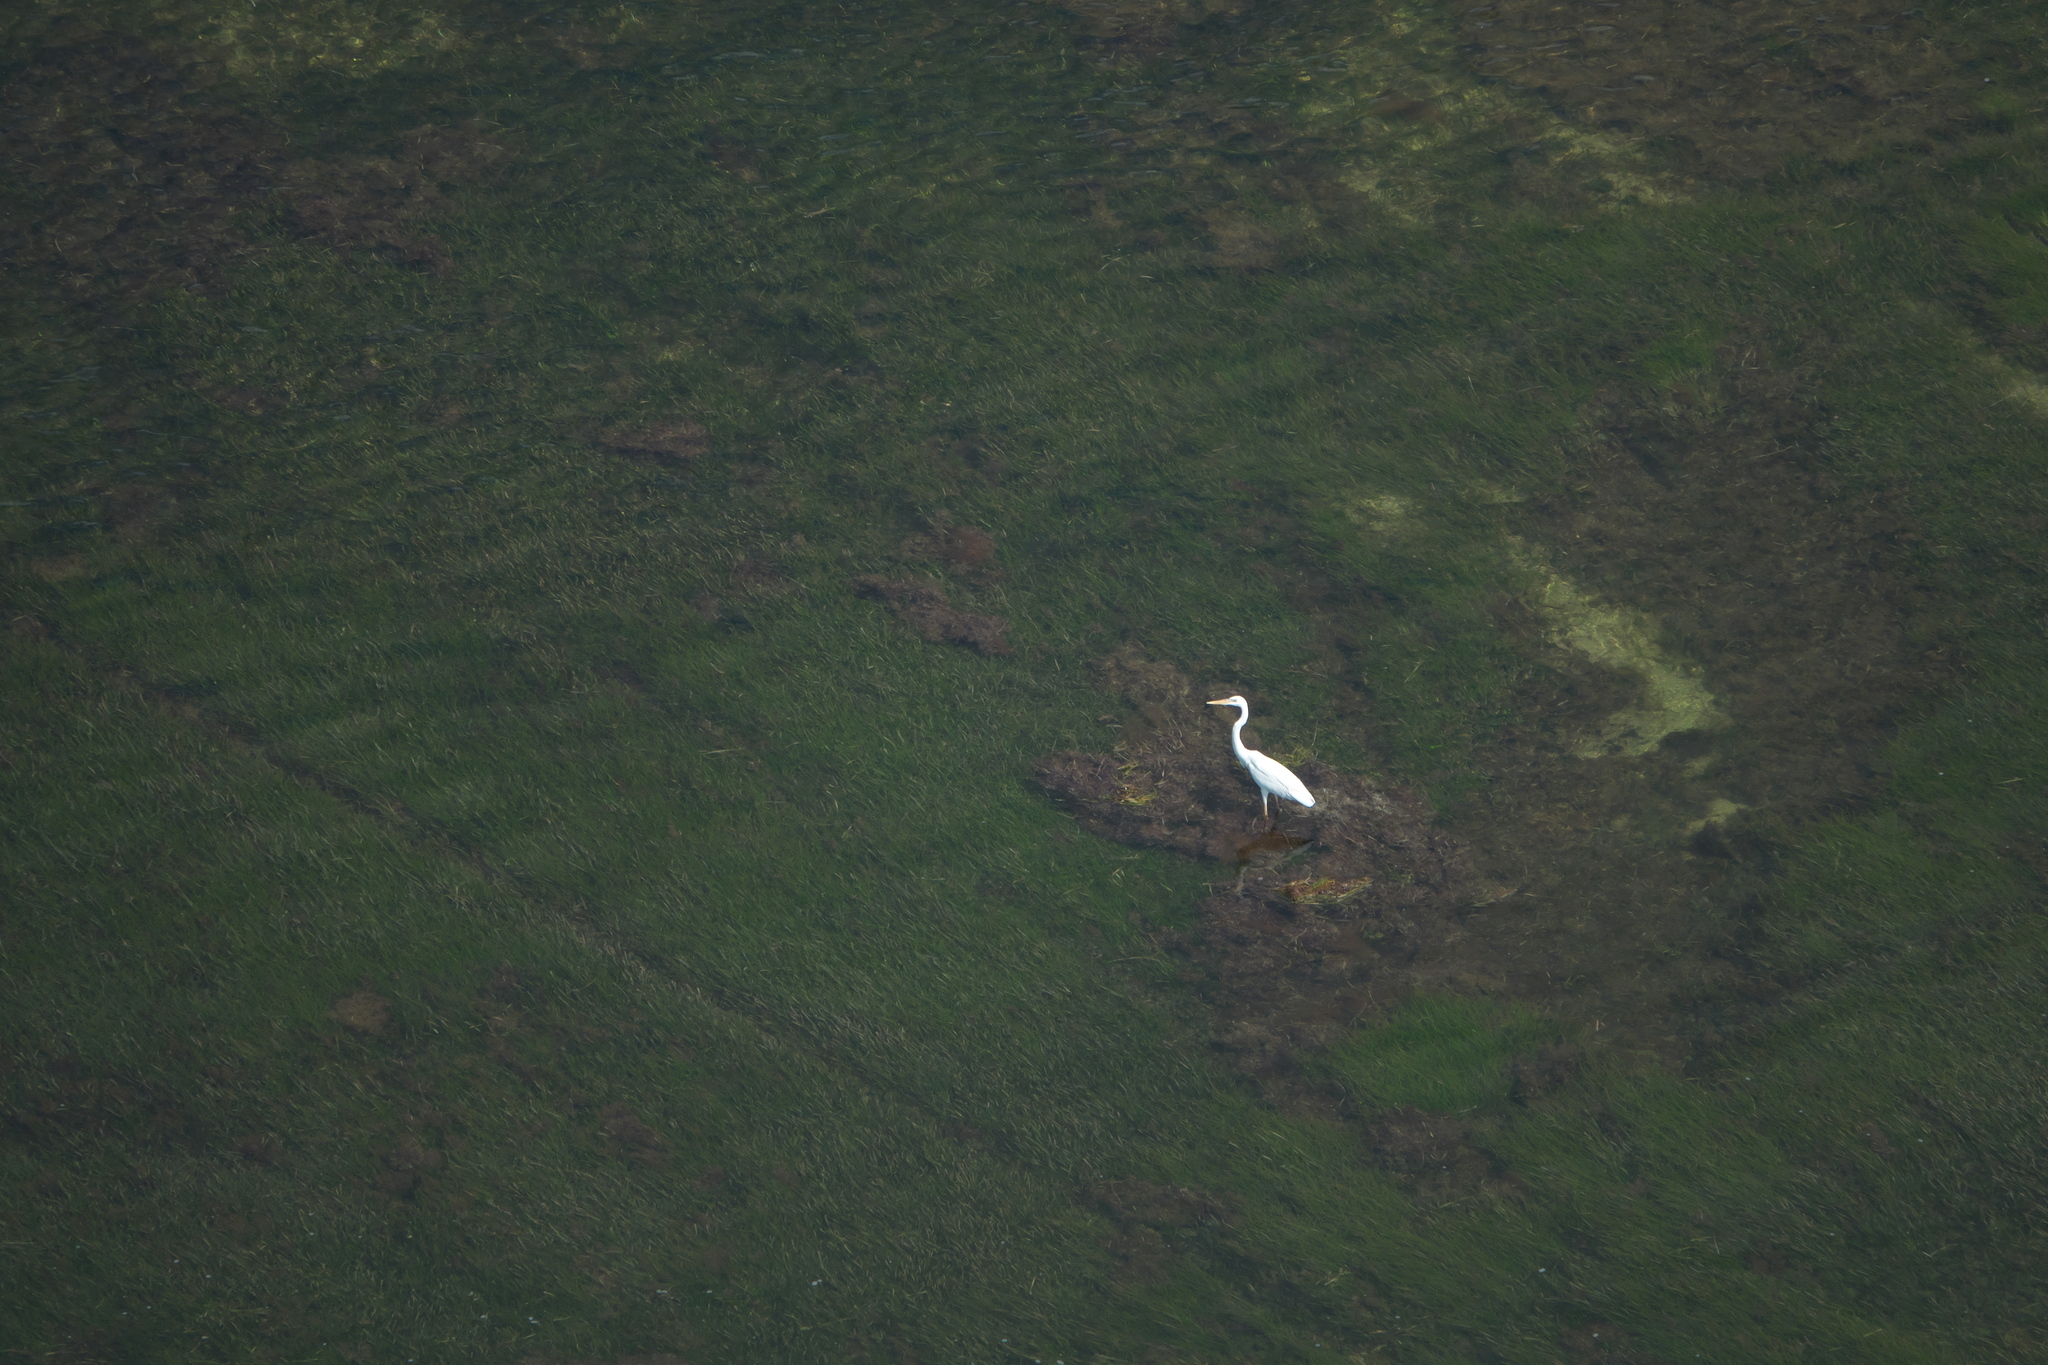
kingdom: Animalia
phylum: Chordata
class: Aves
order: Pelecaniformes
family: Ardeidae
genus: Ardea
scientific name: Ardea herodias
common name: Great blue heron
